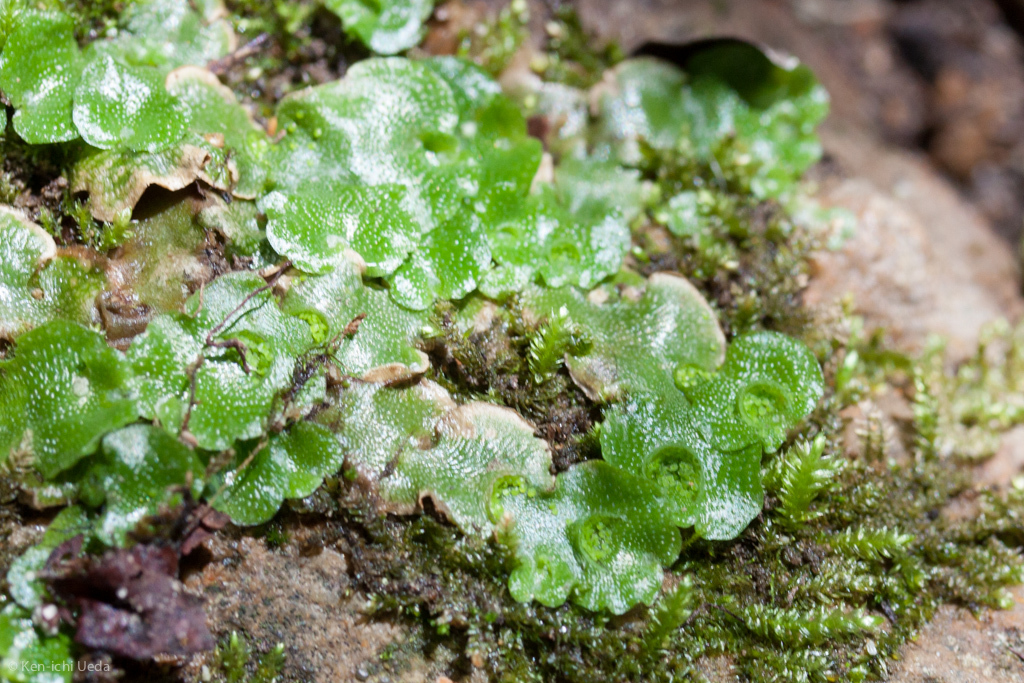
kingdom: Plantae
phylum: Marchantiophyta
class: Marchantiopsida
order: Lunulariales
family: Lunulariaceae
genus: Lunularia
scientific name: Lunularia cruciata
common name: Crescent-cup liverwort
